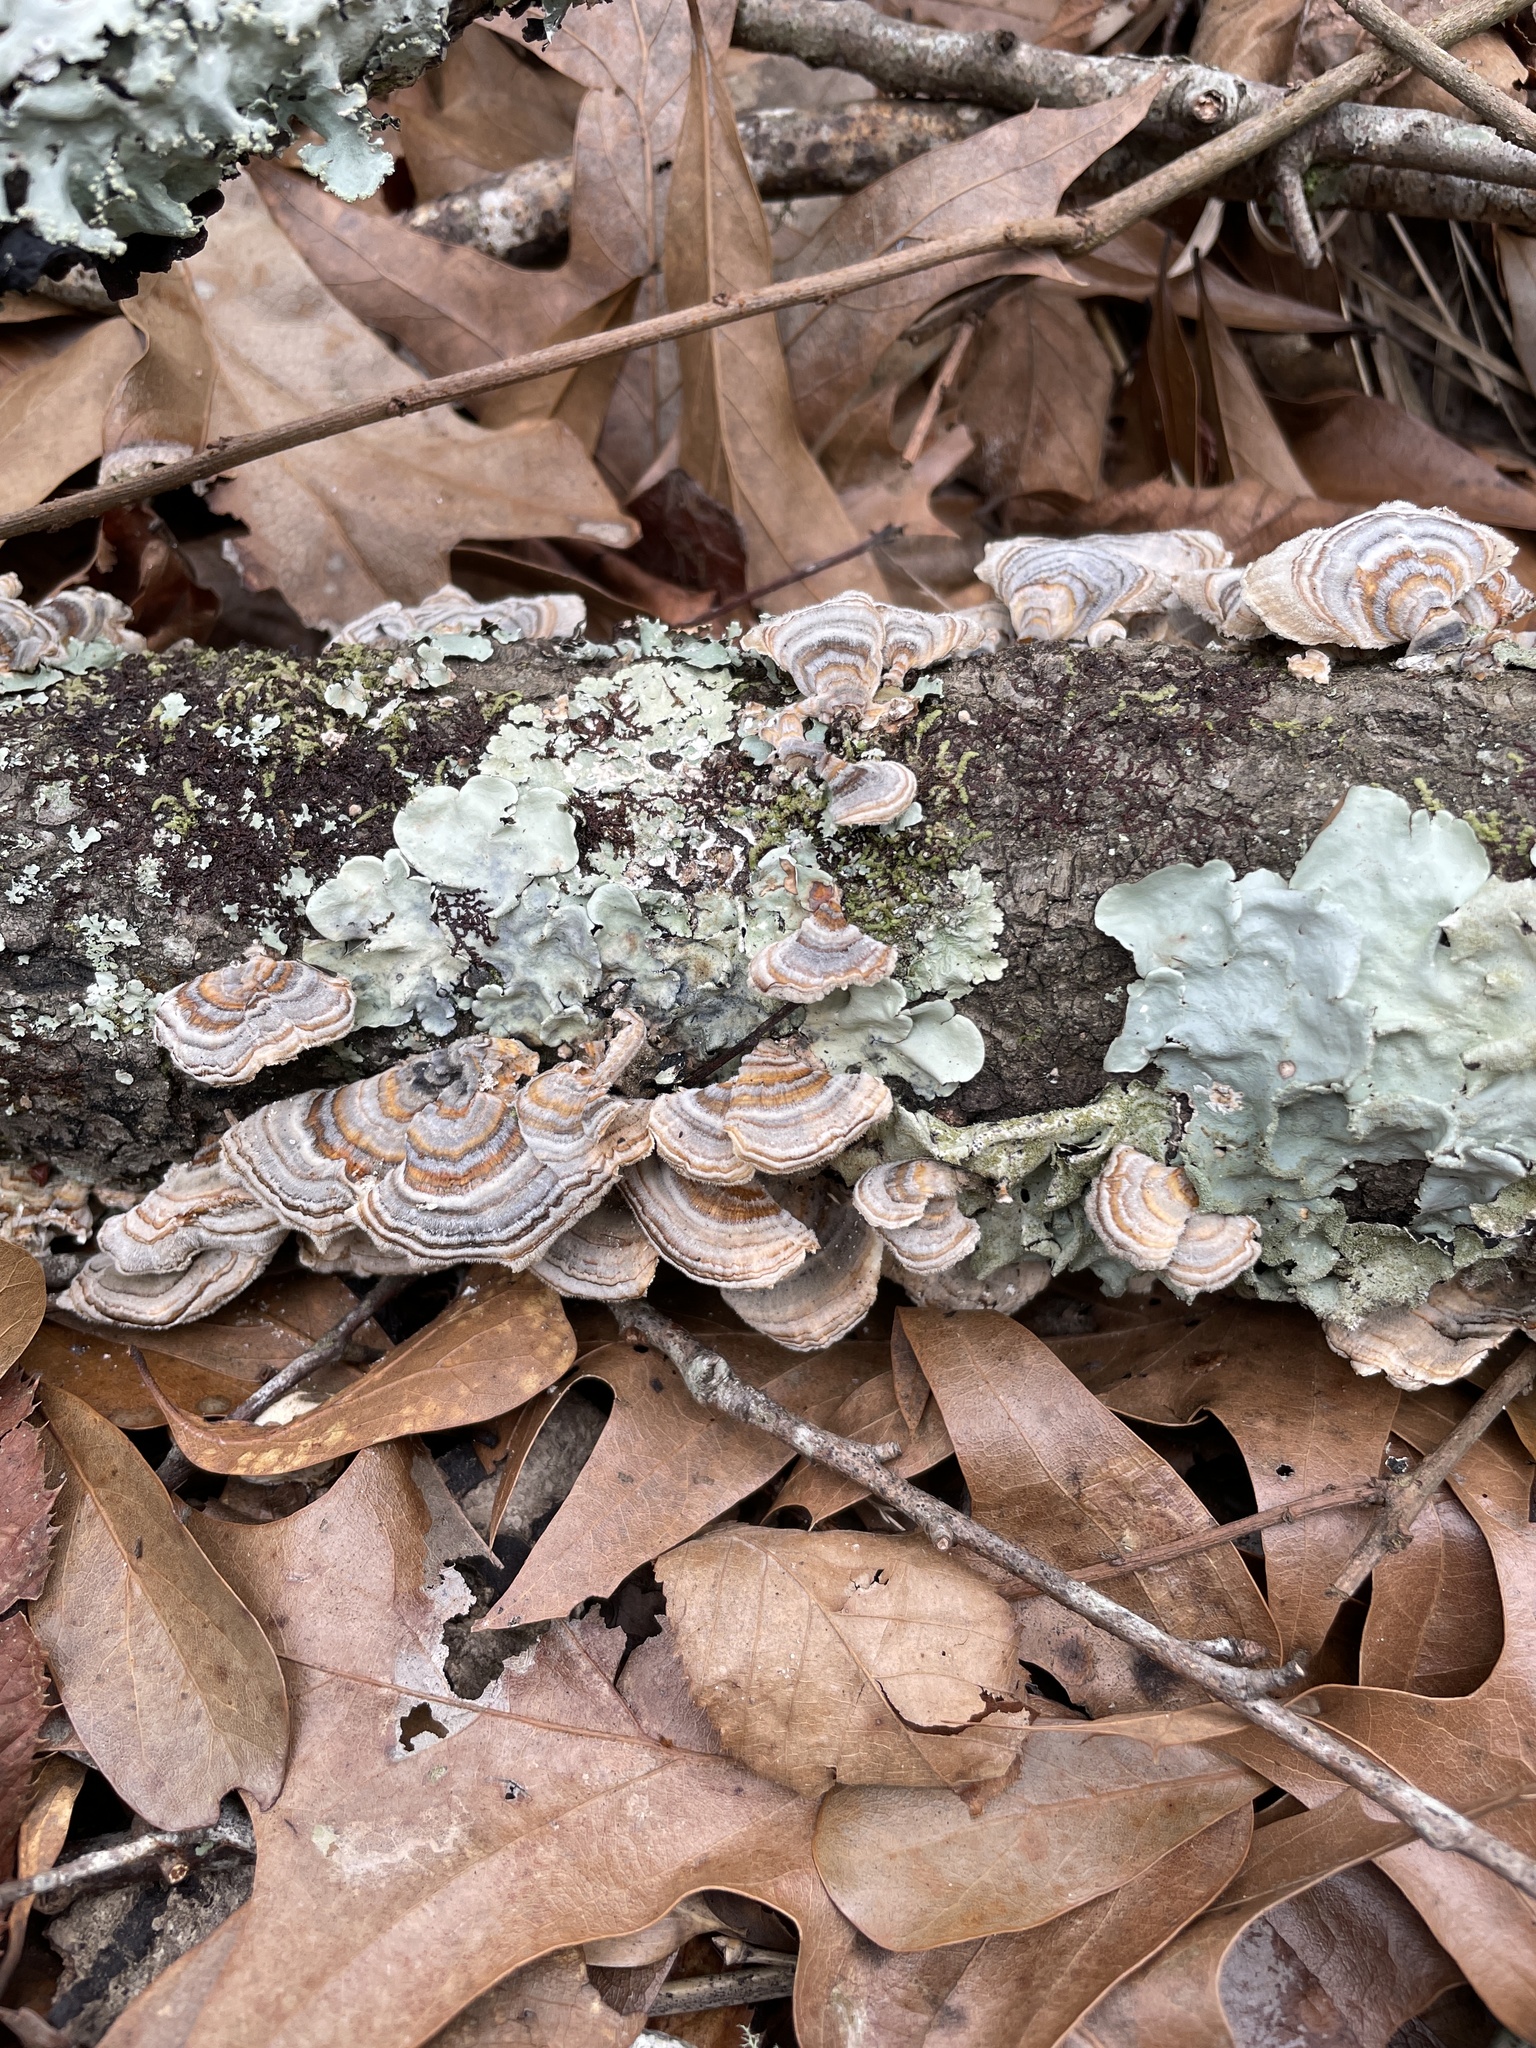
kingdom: Fungi
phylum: Basidiomycota
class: Agaricomycetes
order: Polyporales
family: Polyporaceae
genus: Trametes
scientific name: Trametes versicolor
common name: Turkeytail
